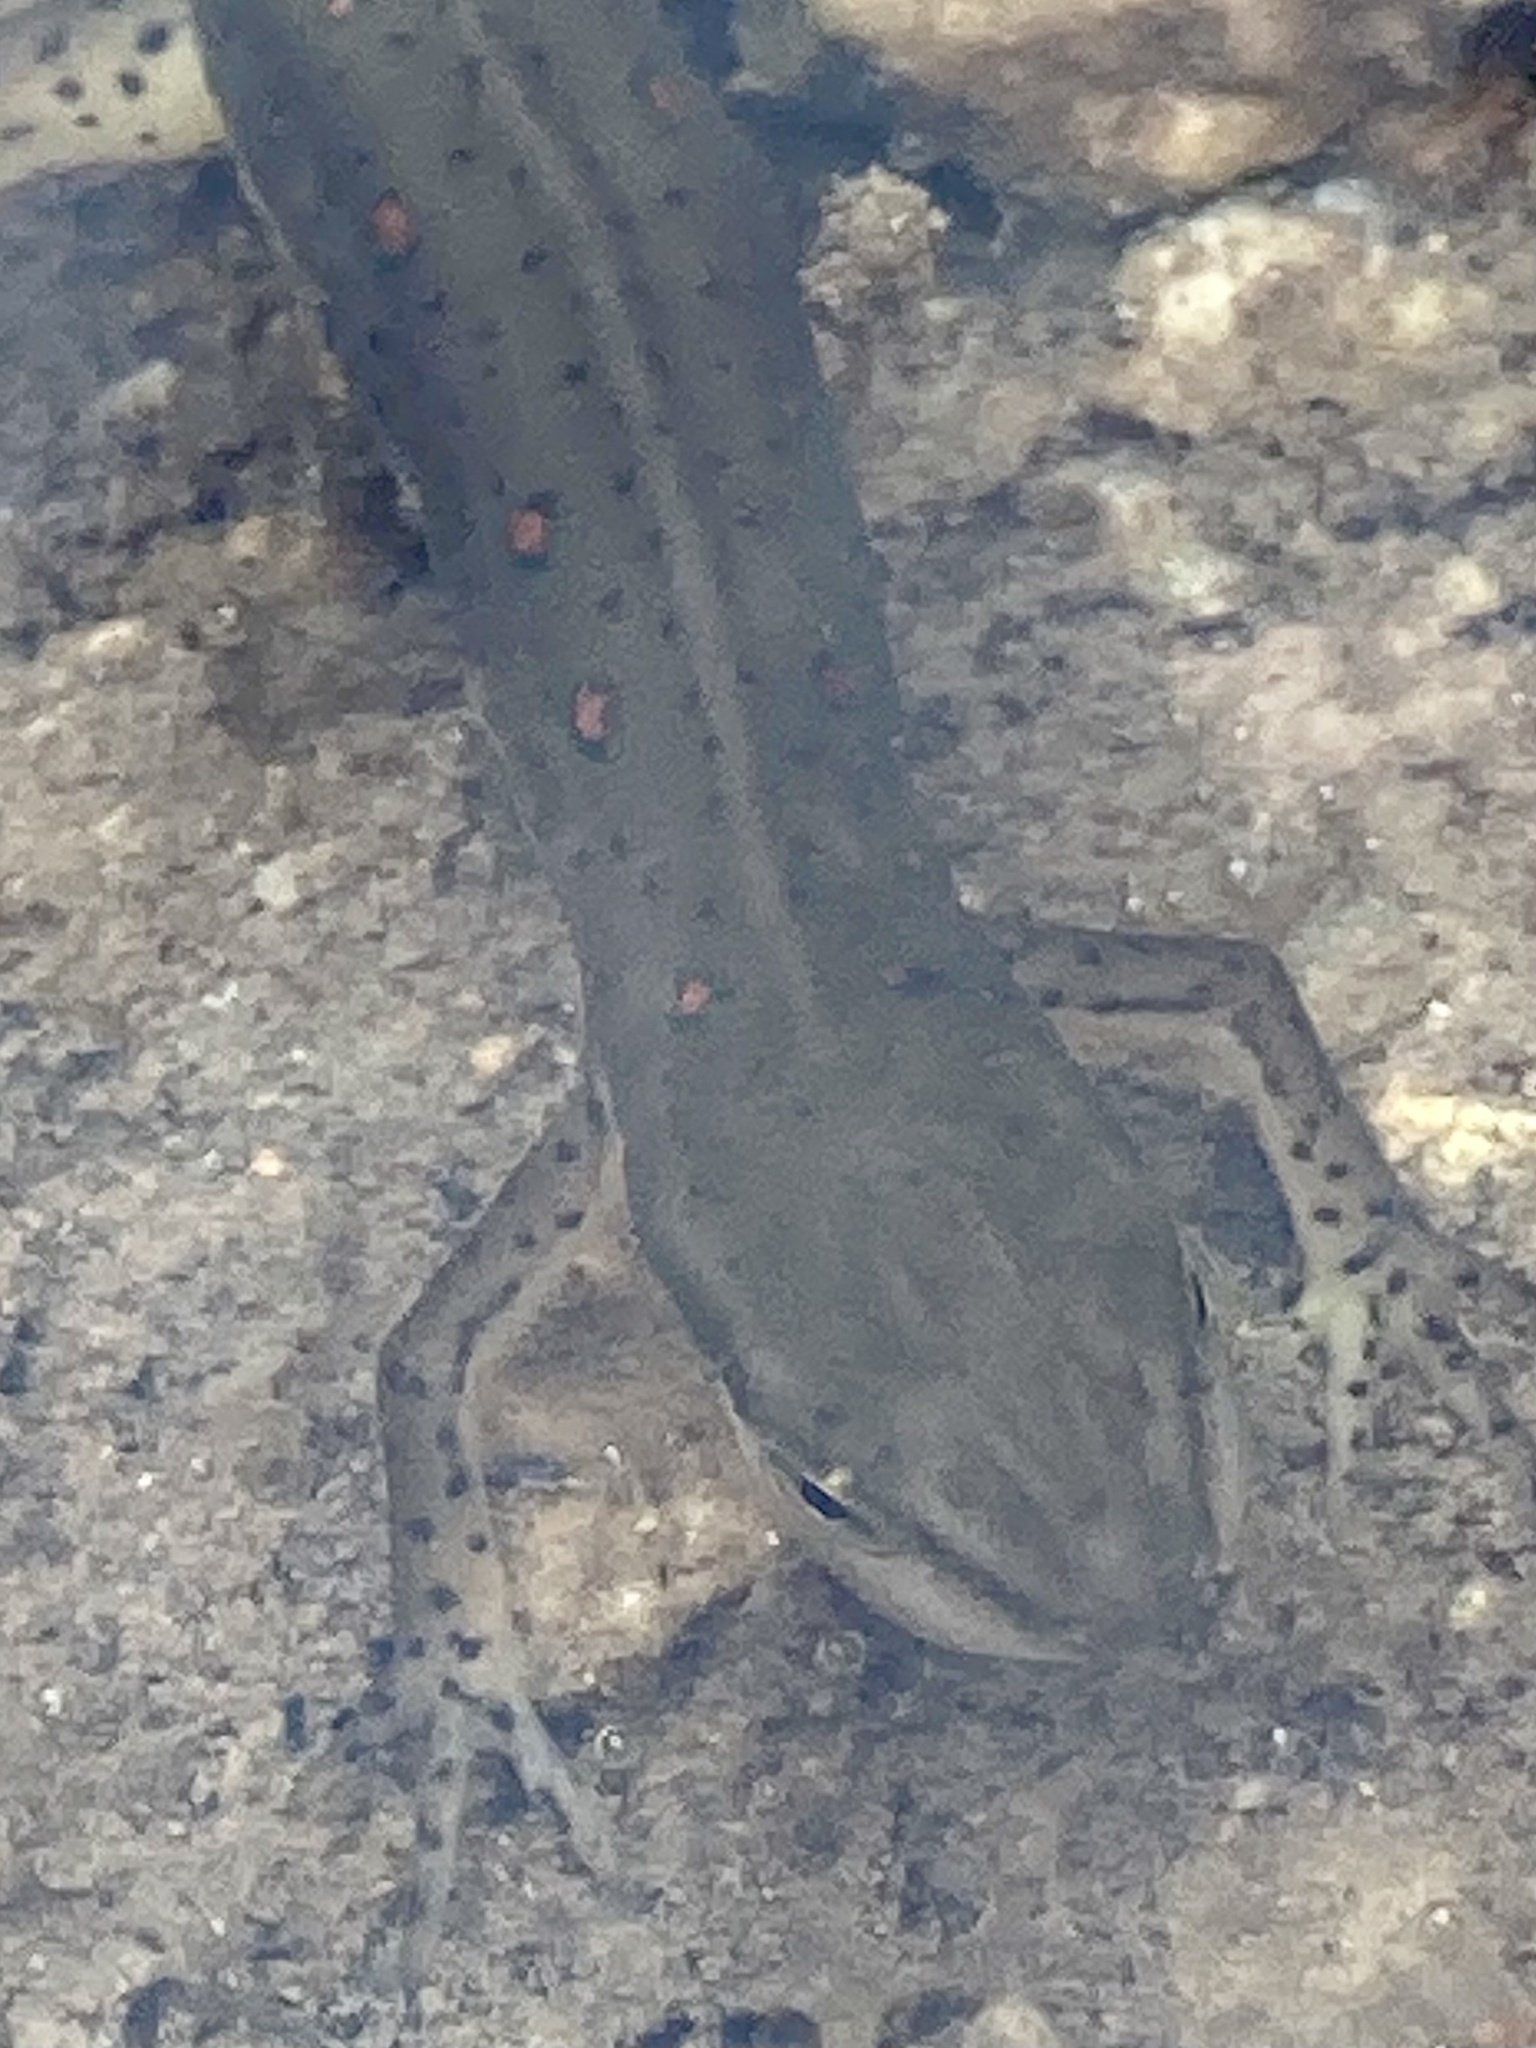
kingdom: Animalia
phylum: Chordata
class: Amphibia
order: Caudata
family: Salamandridae
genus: Notophthalmus
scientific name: Notophthalmus viridescens
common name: Eastern newt
